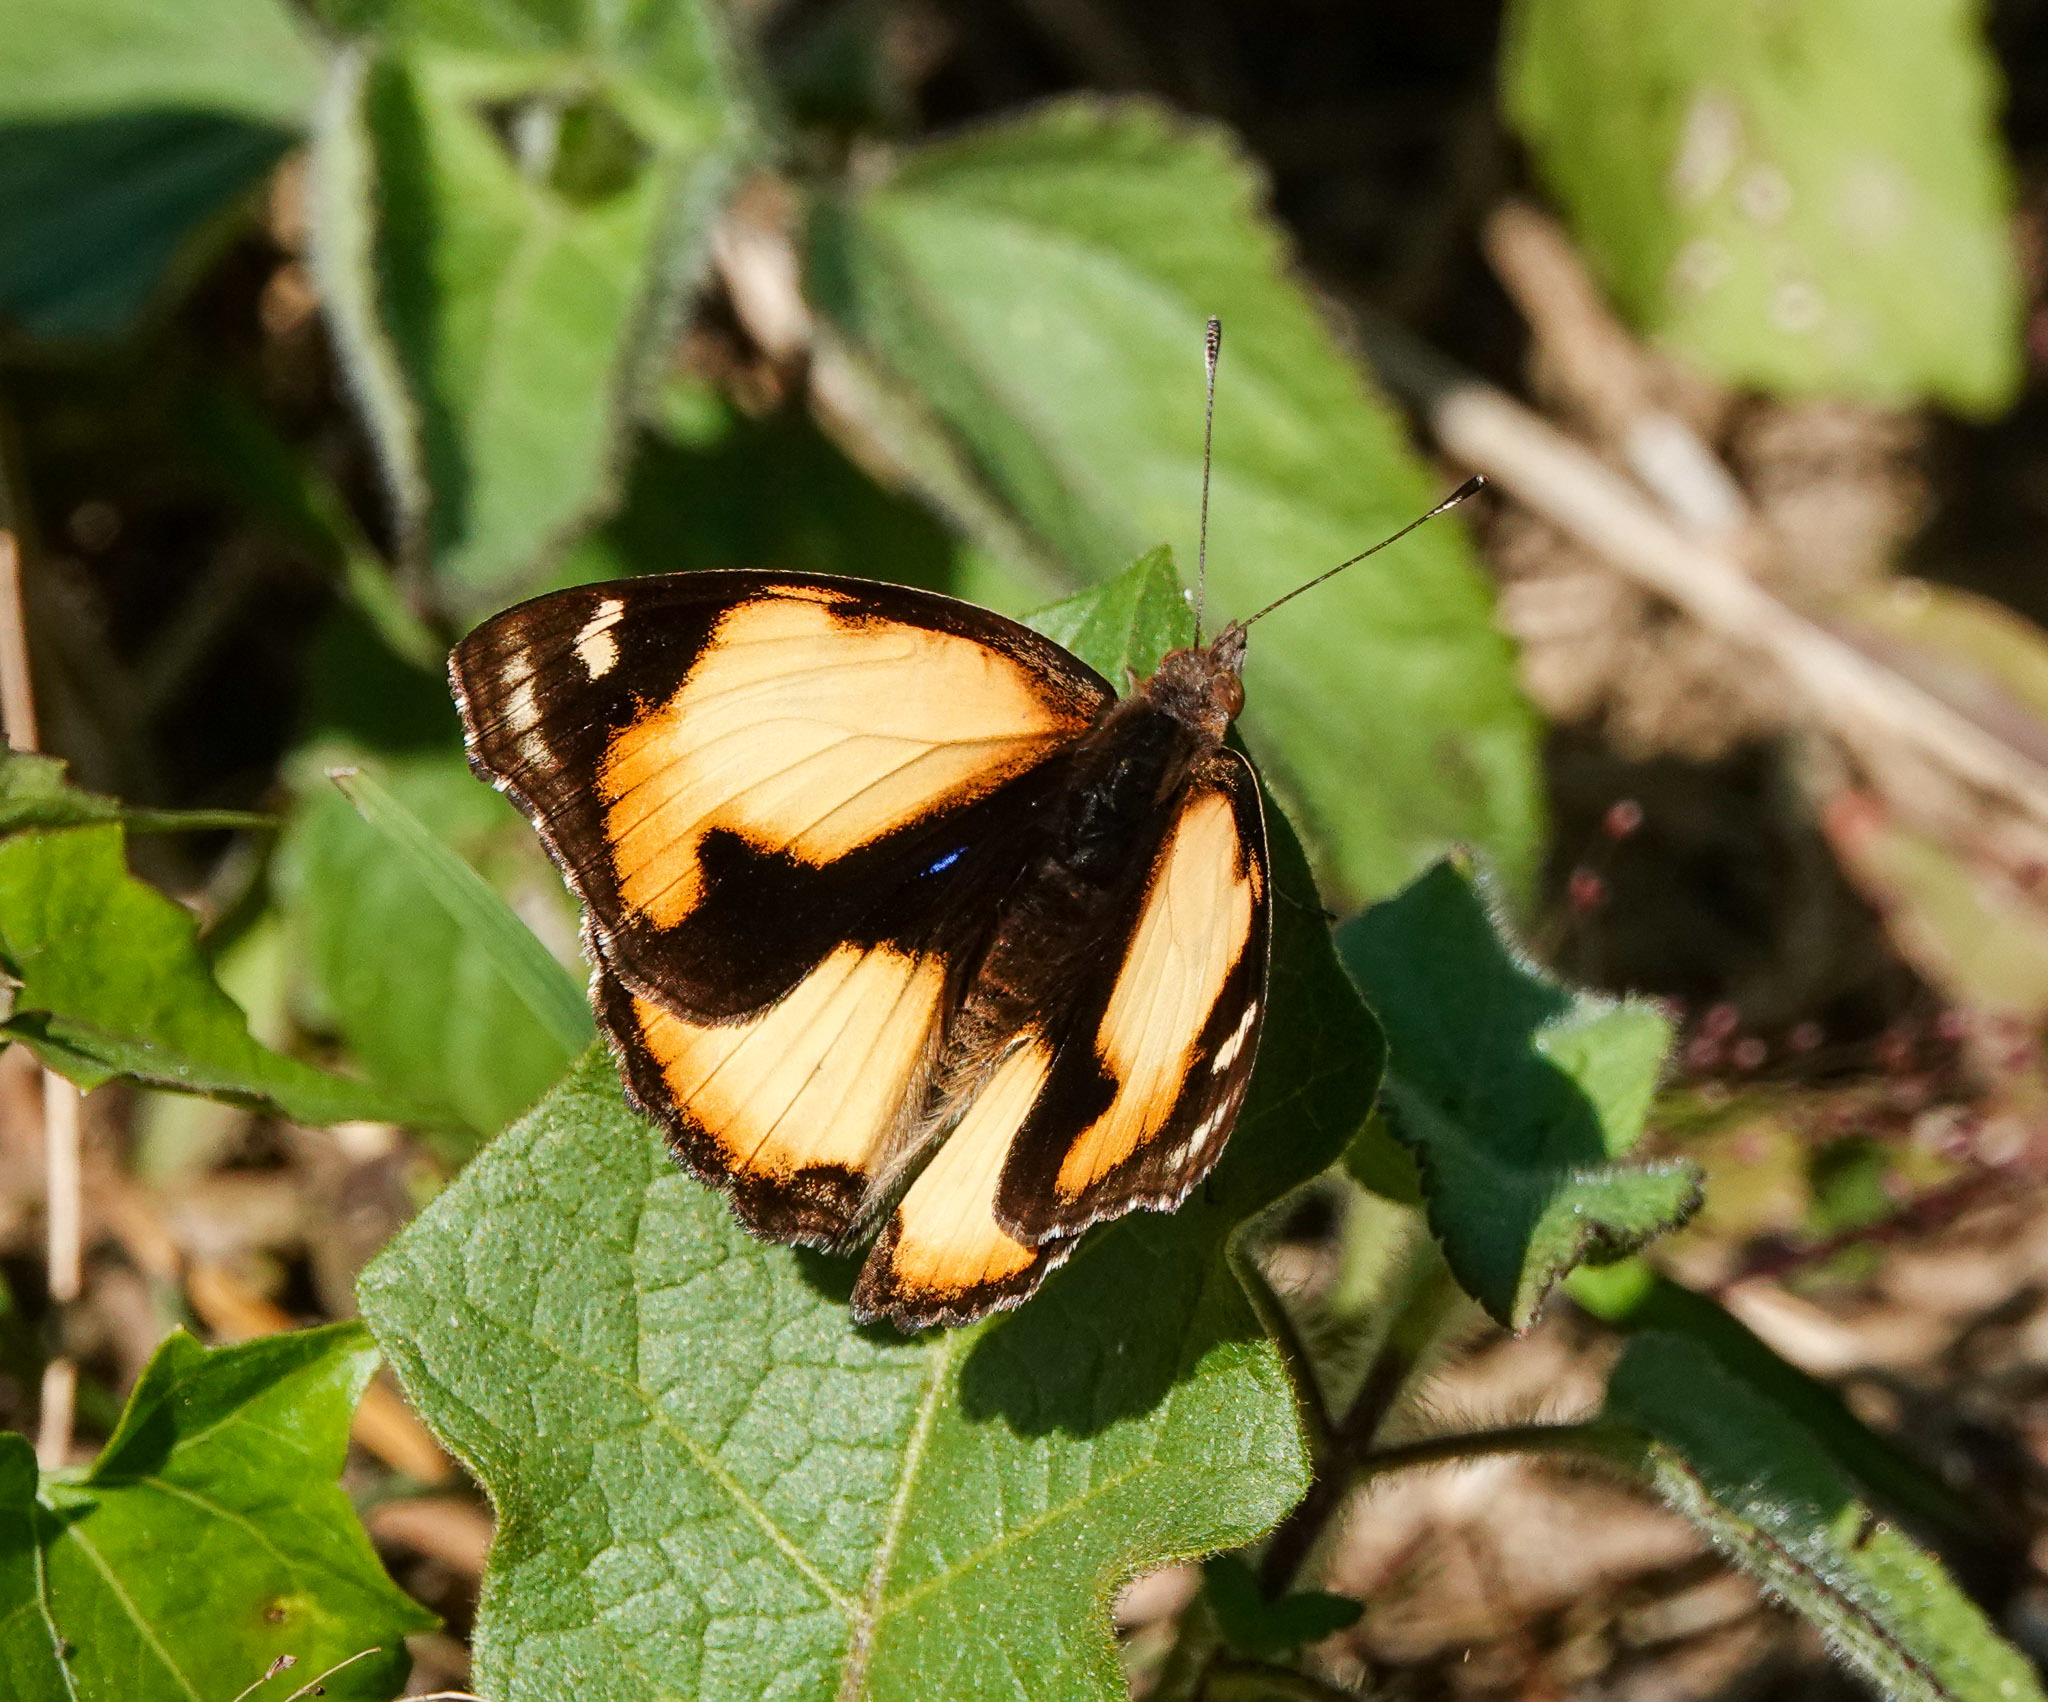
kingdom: Animalia
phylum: Arthropoda
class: Insecta
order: Lepidoptera
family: Nymphalidae
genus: Junonia
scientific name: Junonia hierta
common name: Yellow pansy
